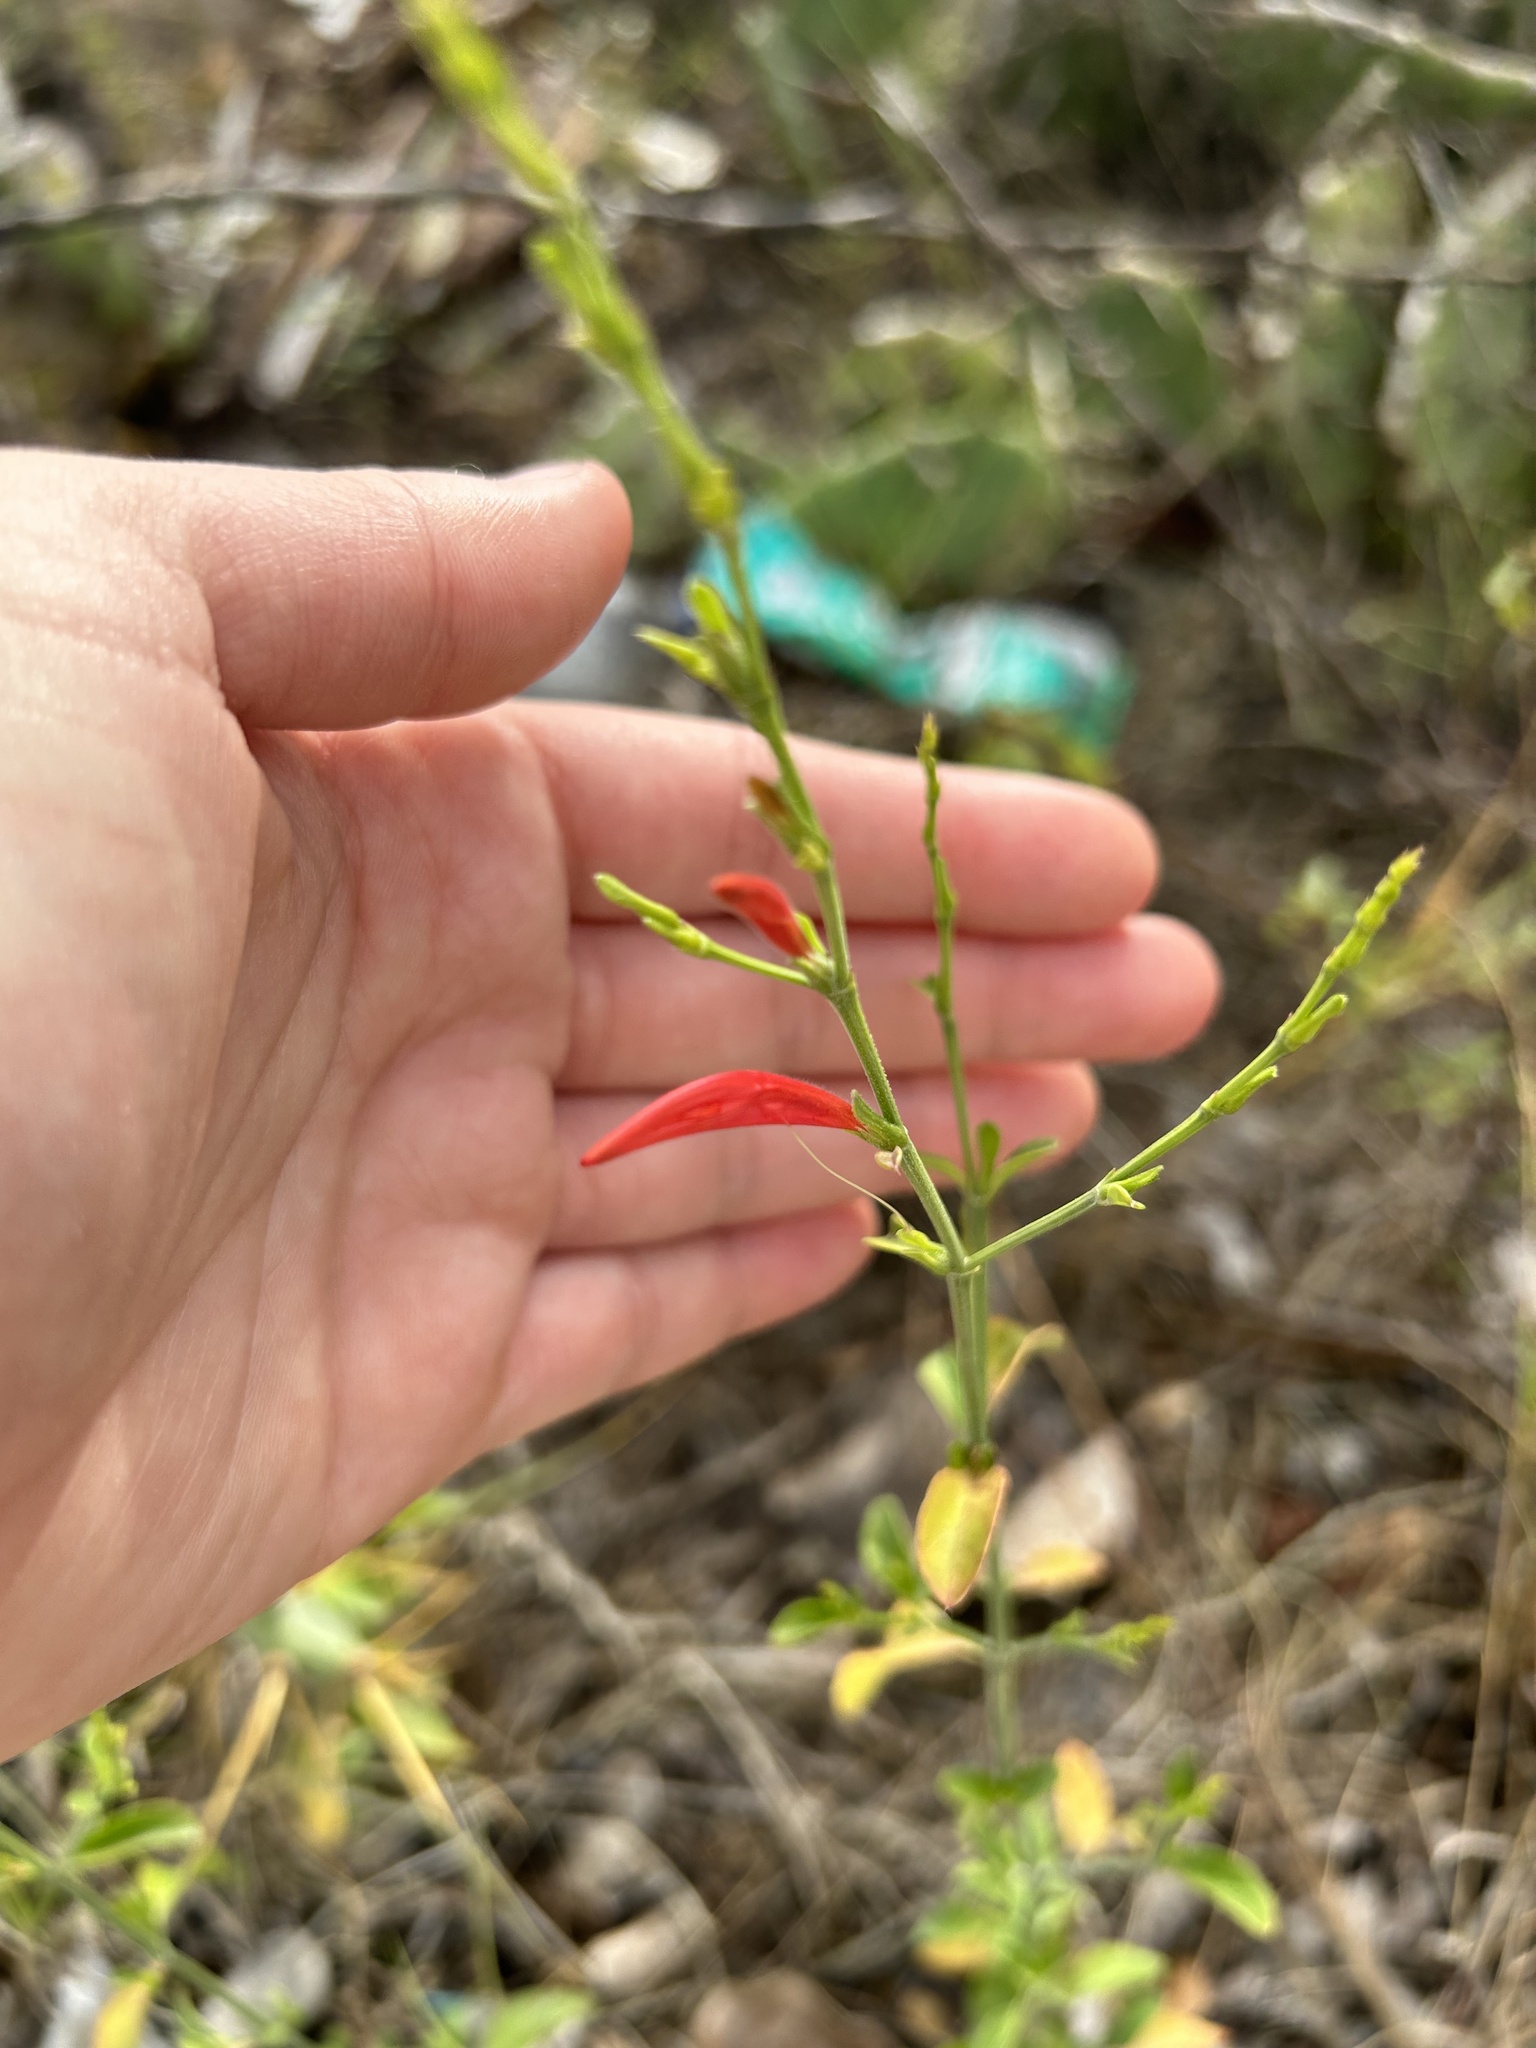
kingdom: Plantae
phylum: Tracheophyta
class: Magnoliopsida
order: Lamiales
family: Acanthaceae
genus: Dicliptera
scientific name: Dicliptera sexangularis
